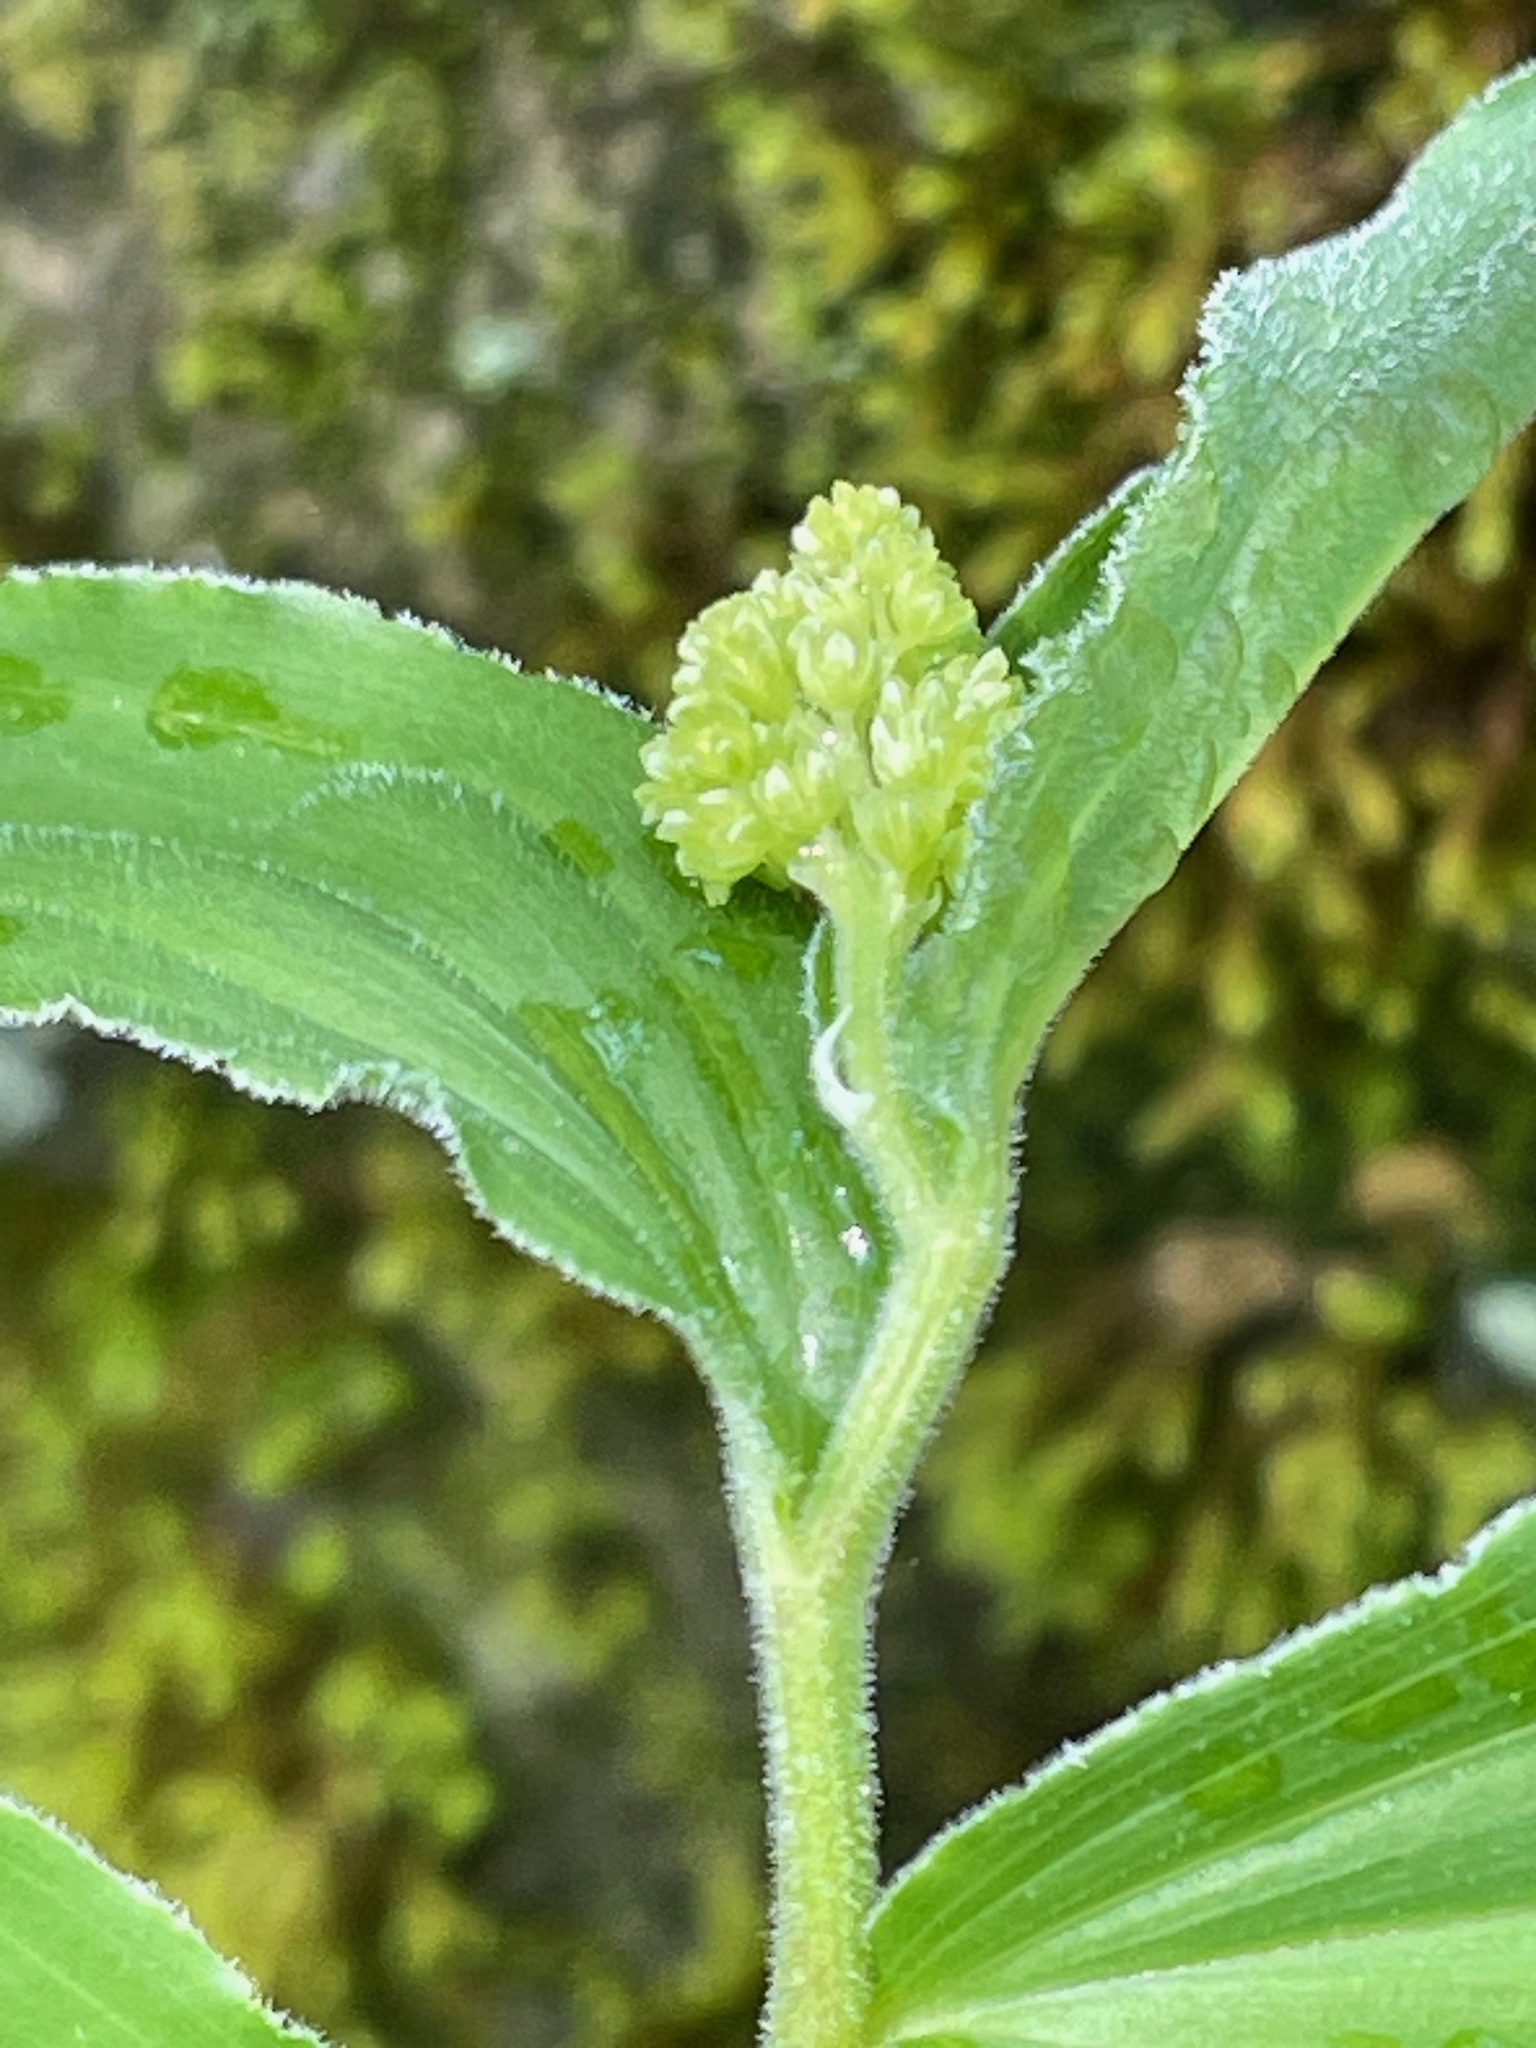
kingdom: Plantae
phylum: Tracheophyta
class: Liliopsida
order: Asparagales
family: Asparagaceae
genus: Maianthemum
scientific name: Maianthemum racemosum
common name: False spikenard
